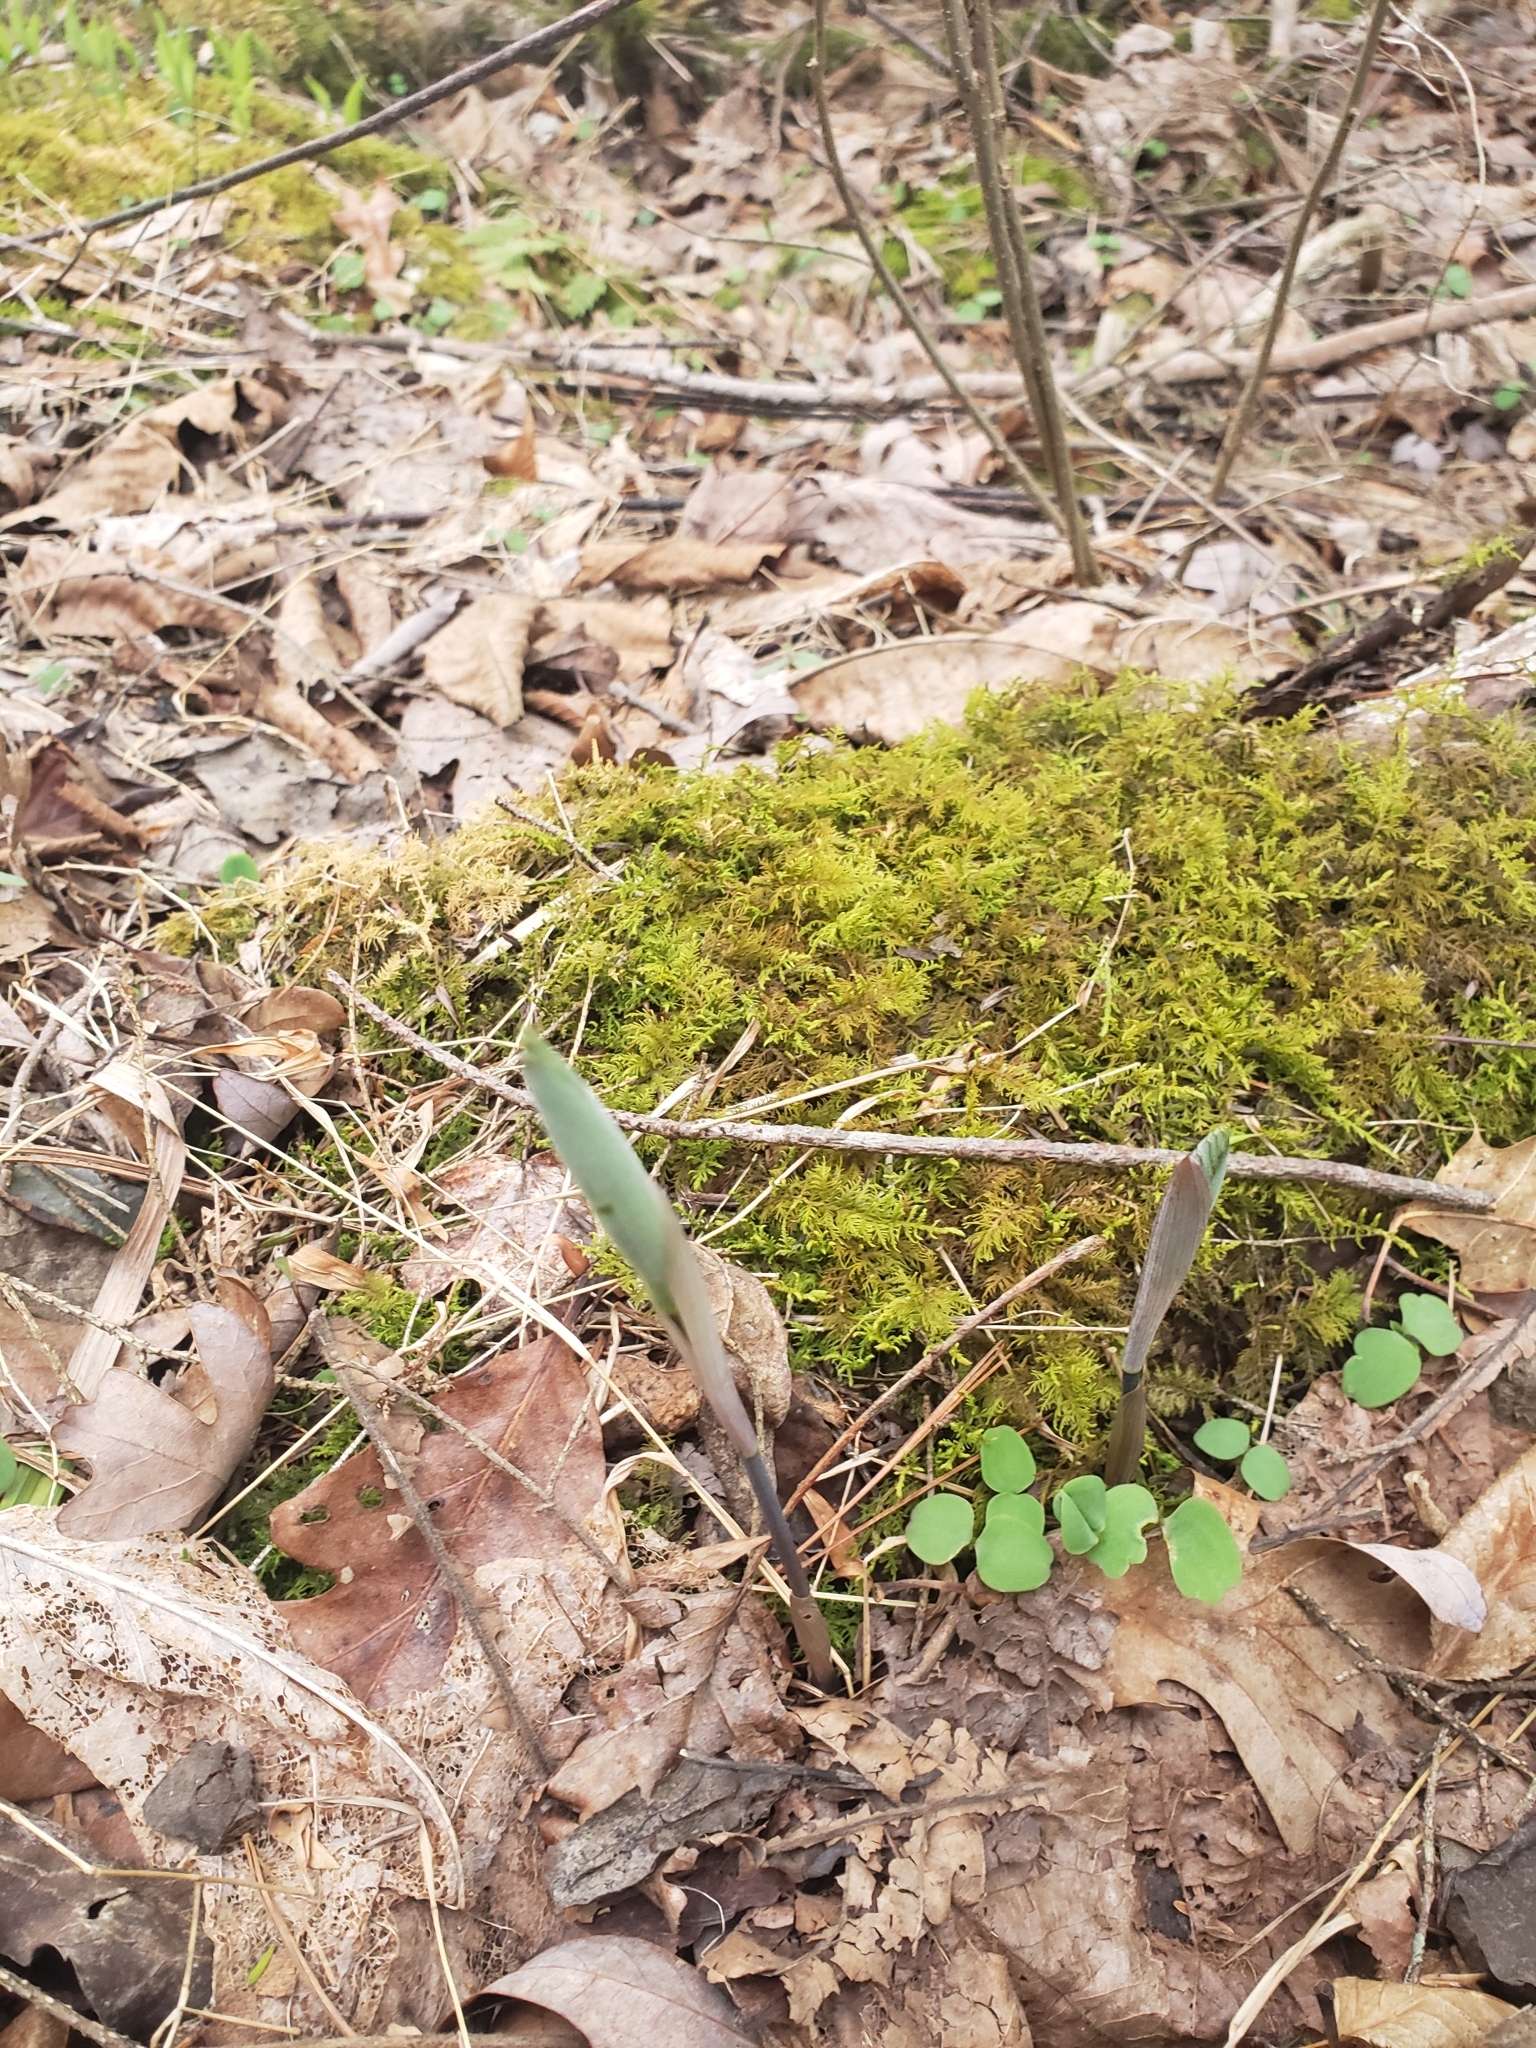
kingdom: Plantae
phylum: Tracheophyta
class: Liliopsida
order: Asparagales
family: Asparagaceae
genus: Polygonatum
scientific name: Polygonatum pubescens
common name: Downy solomon's seal
